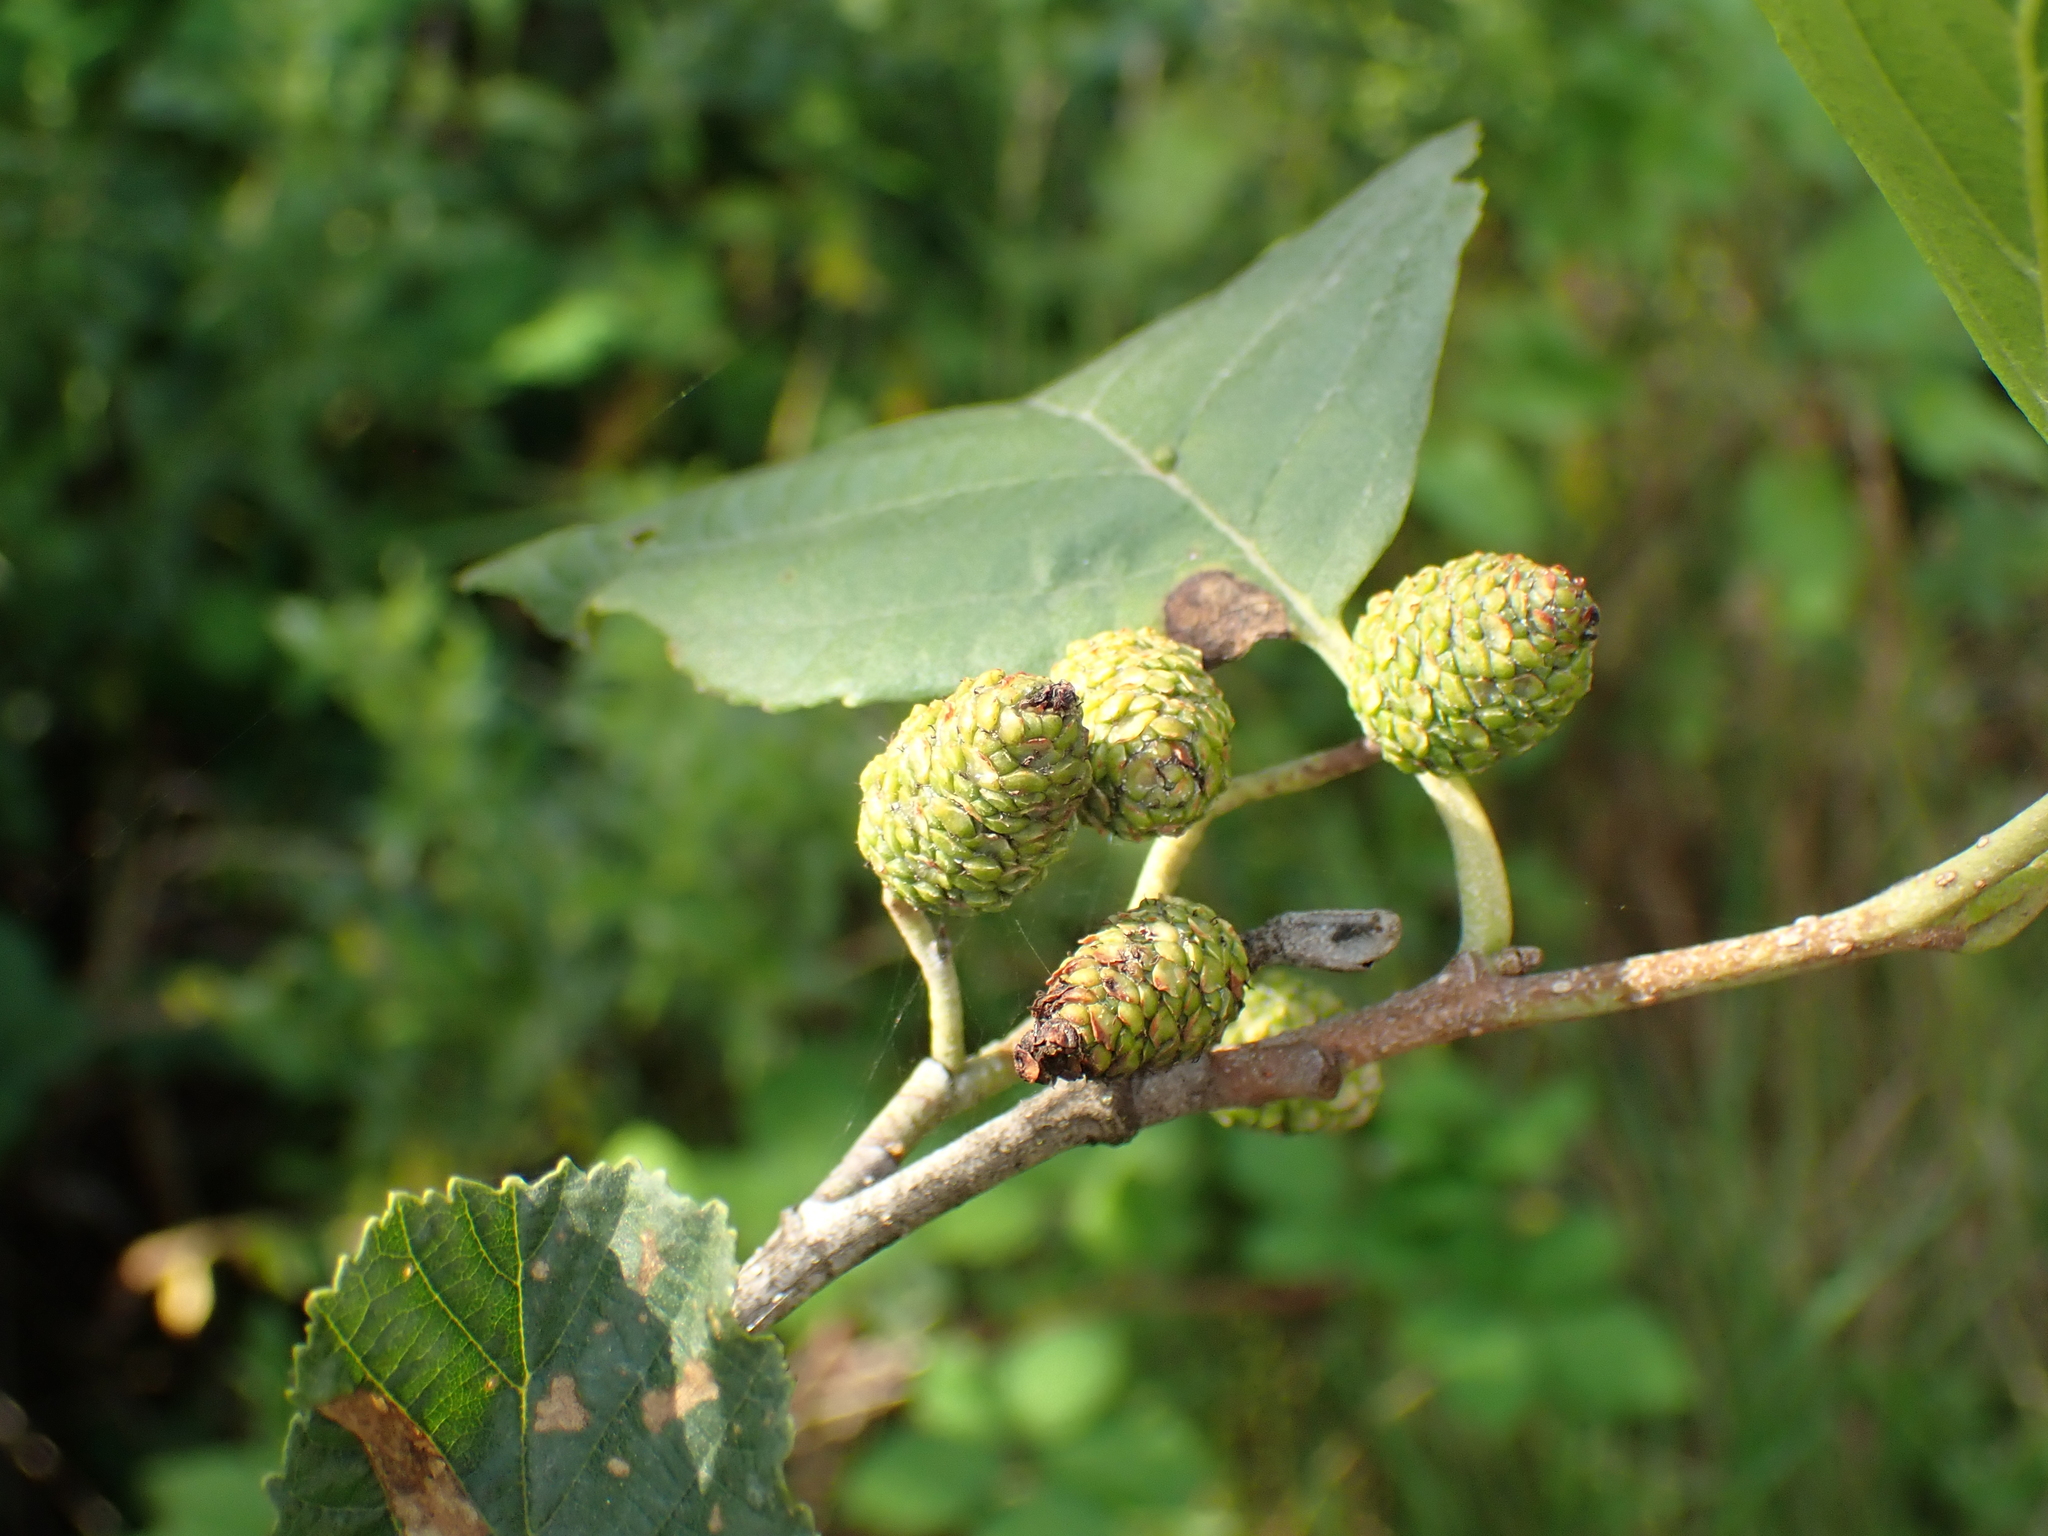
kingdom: Plantae
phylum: Tracheophyta
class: Magnoliopsida
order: Fagales
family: Betulaceae
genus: Alnus
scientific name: Alnus glutinosa
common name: Black alder
